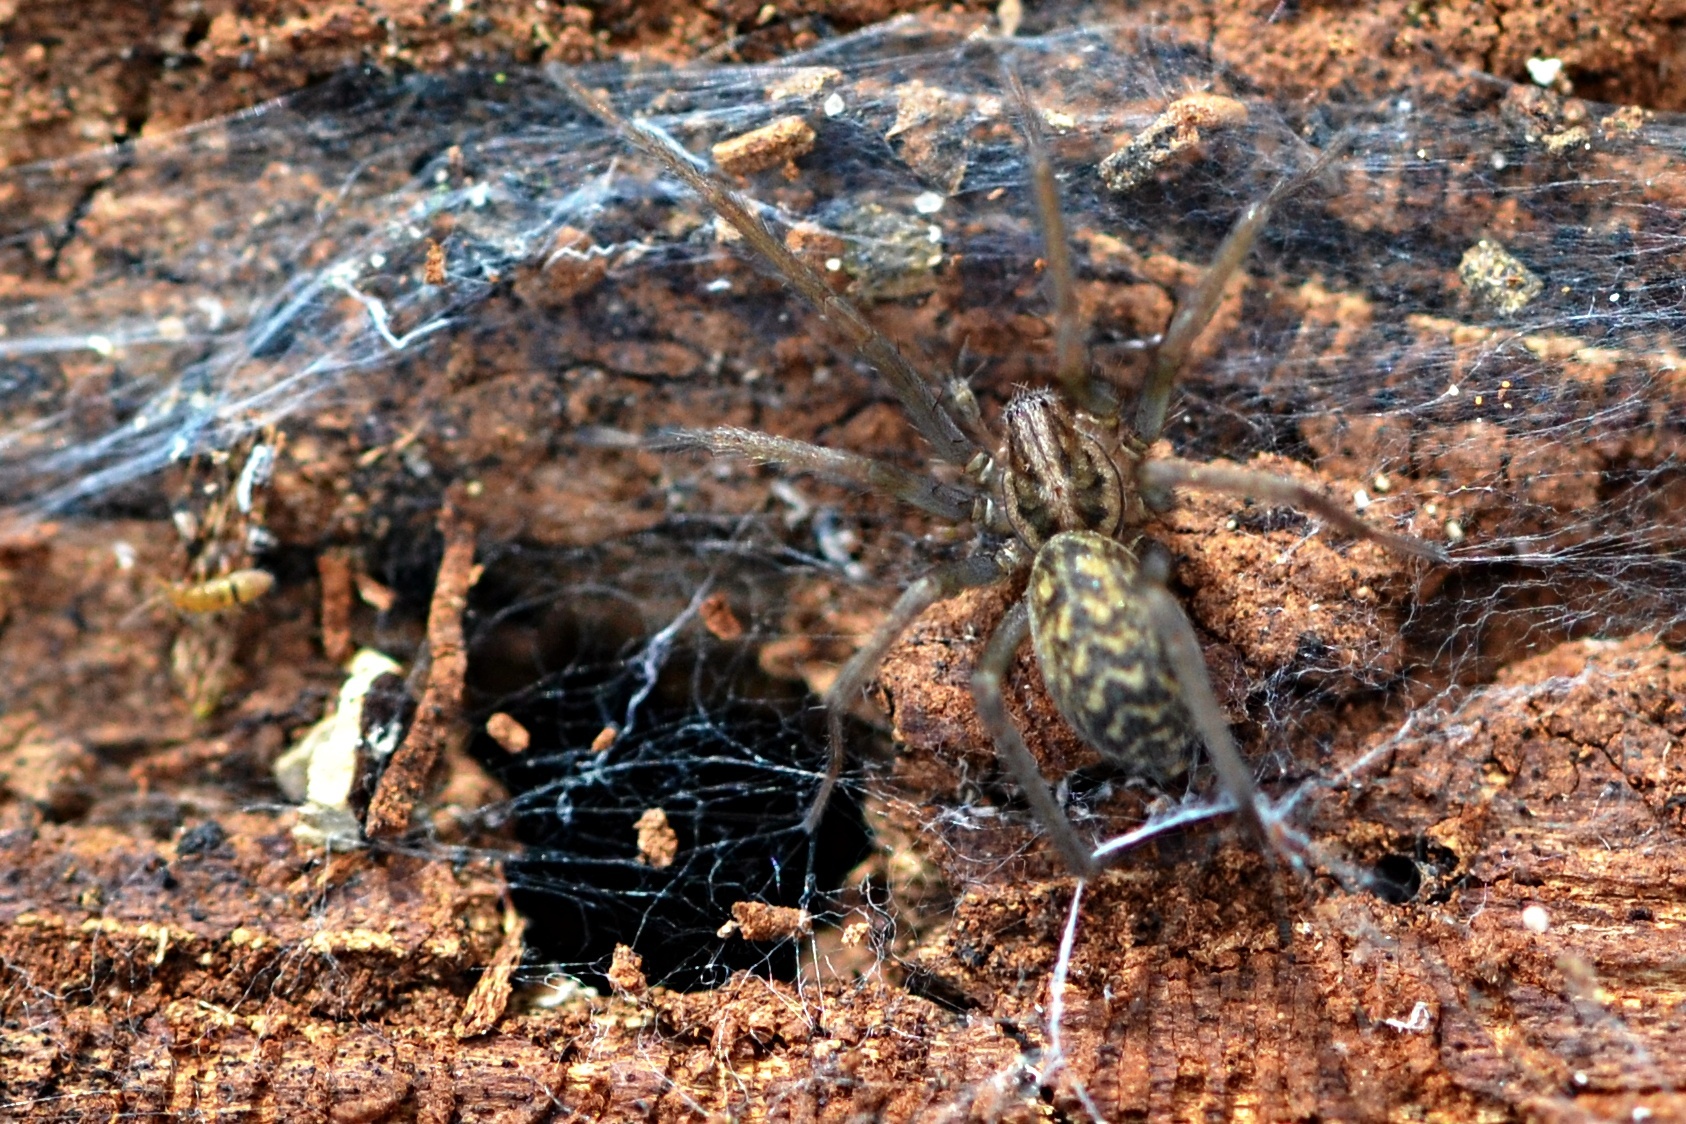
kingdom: Animalia
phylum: Arthropoda
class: Arachnida
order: Araneae
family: Agelenidae
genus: Eratigena
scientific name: Eratigena atrica
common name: Giant house spider
